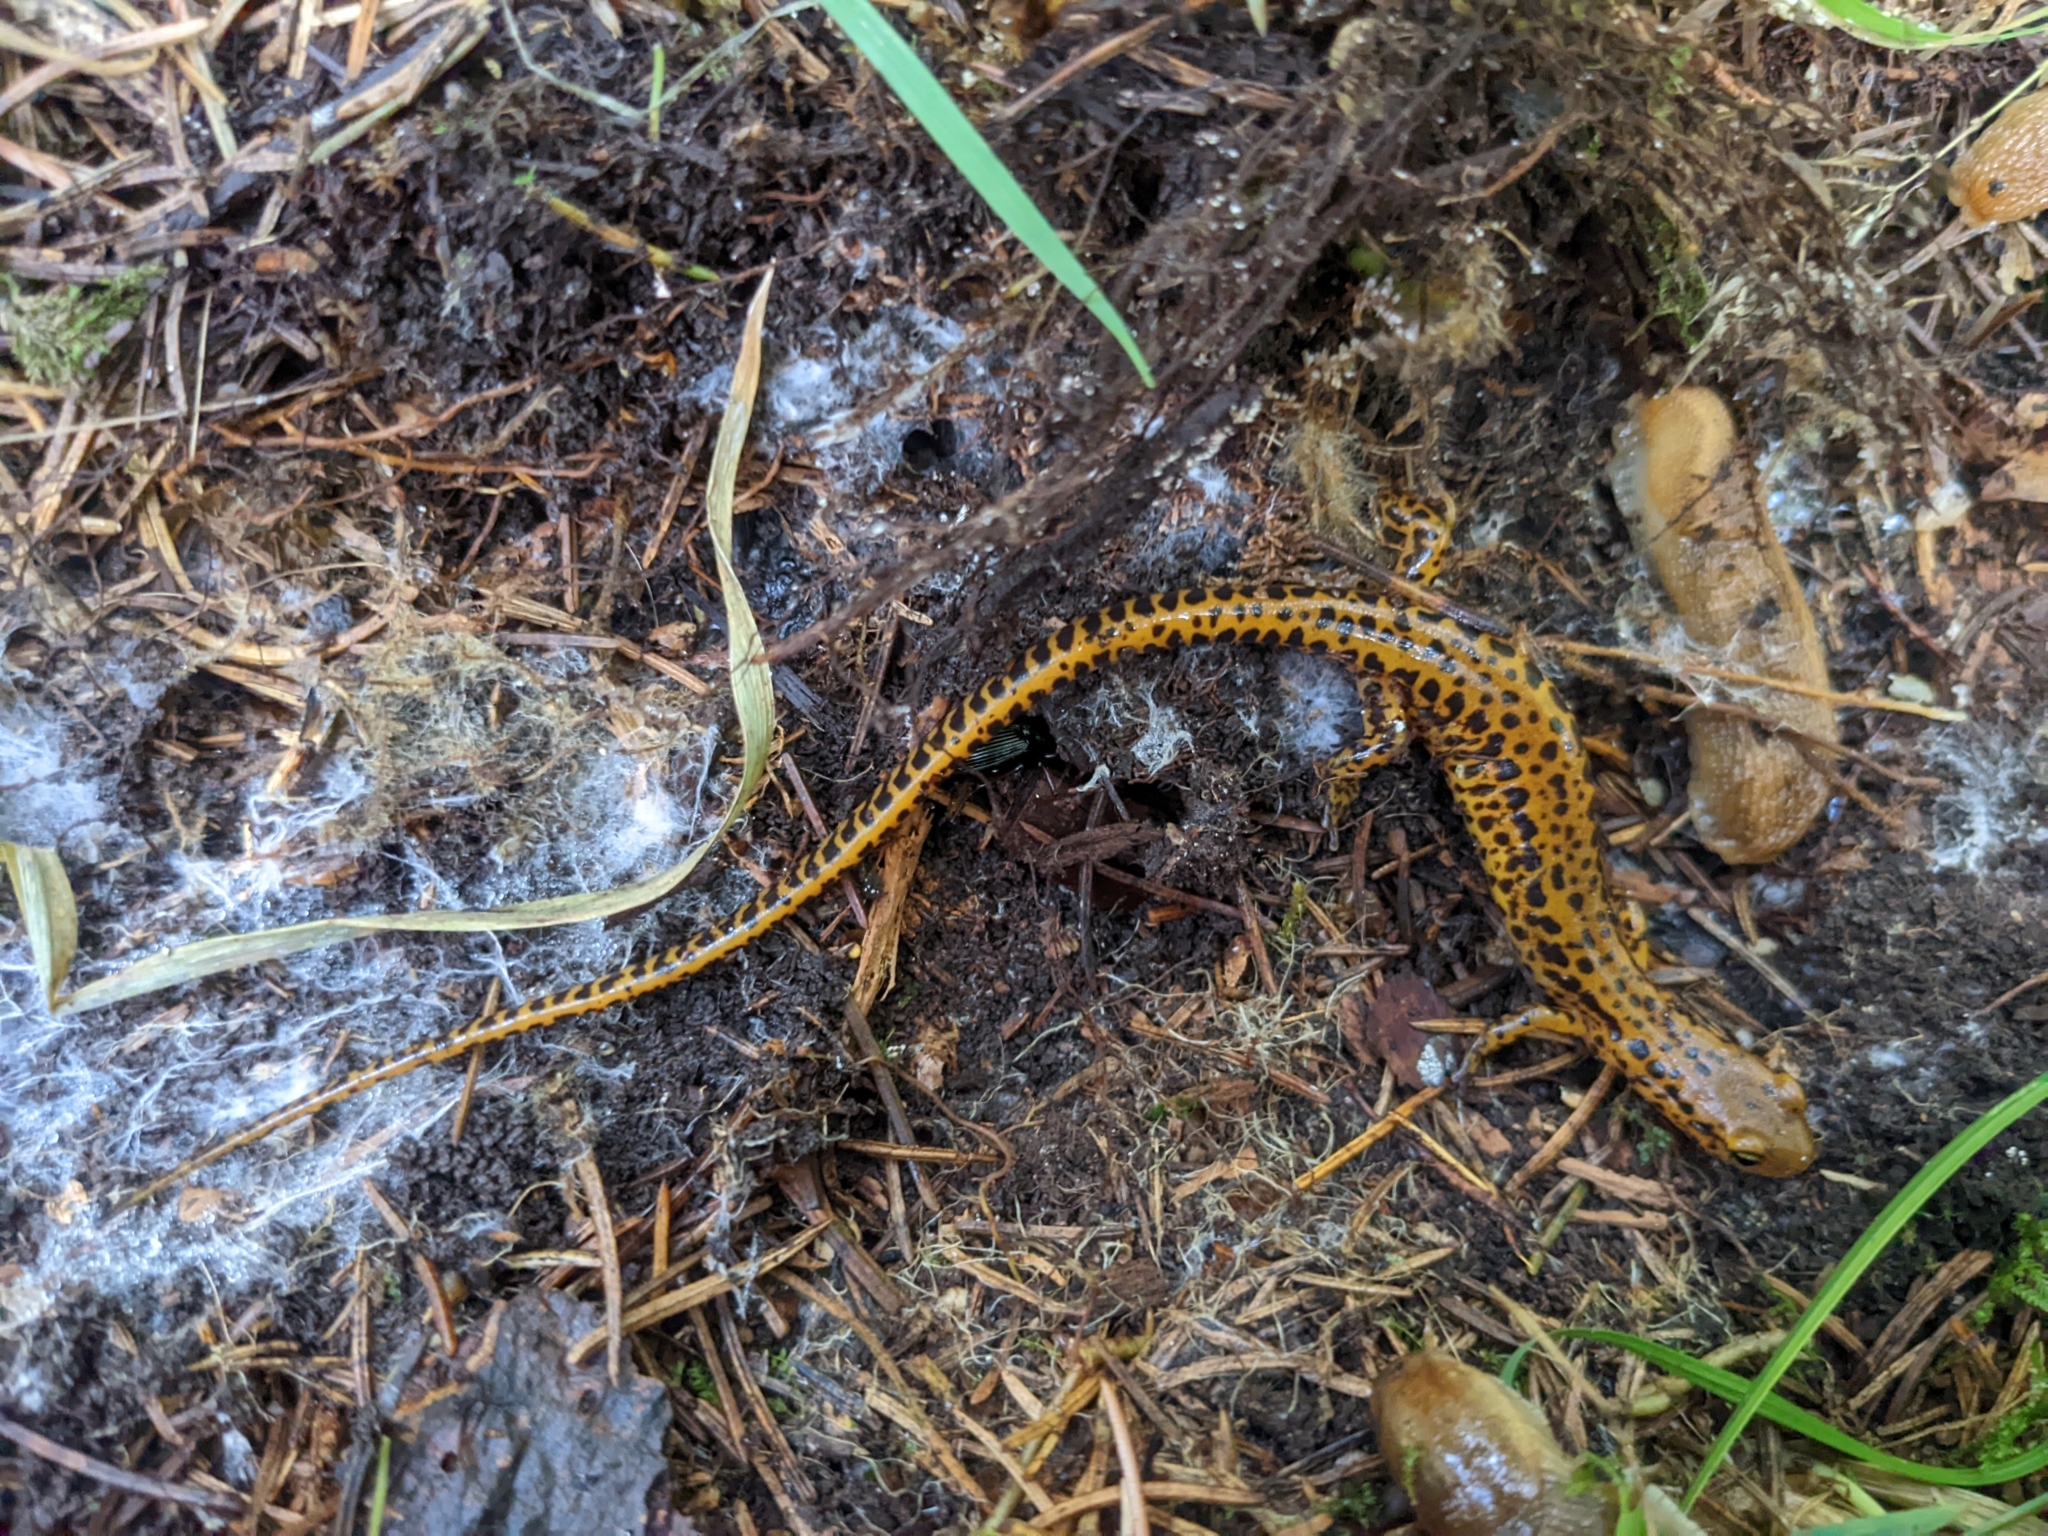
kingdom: Animalia
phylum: Chordata
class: Amphibia
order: Caudata
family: Plethodontidae
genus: Eurycea
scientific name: Eurycea longicauda
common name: Long-tailed salamander
